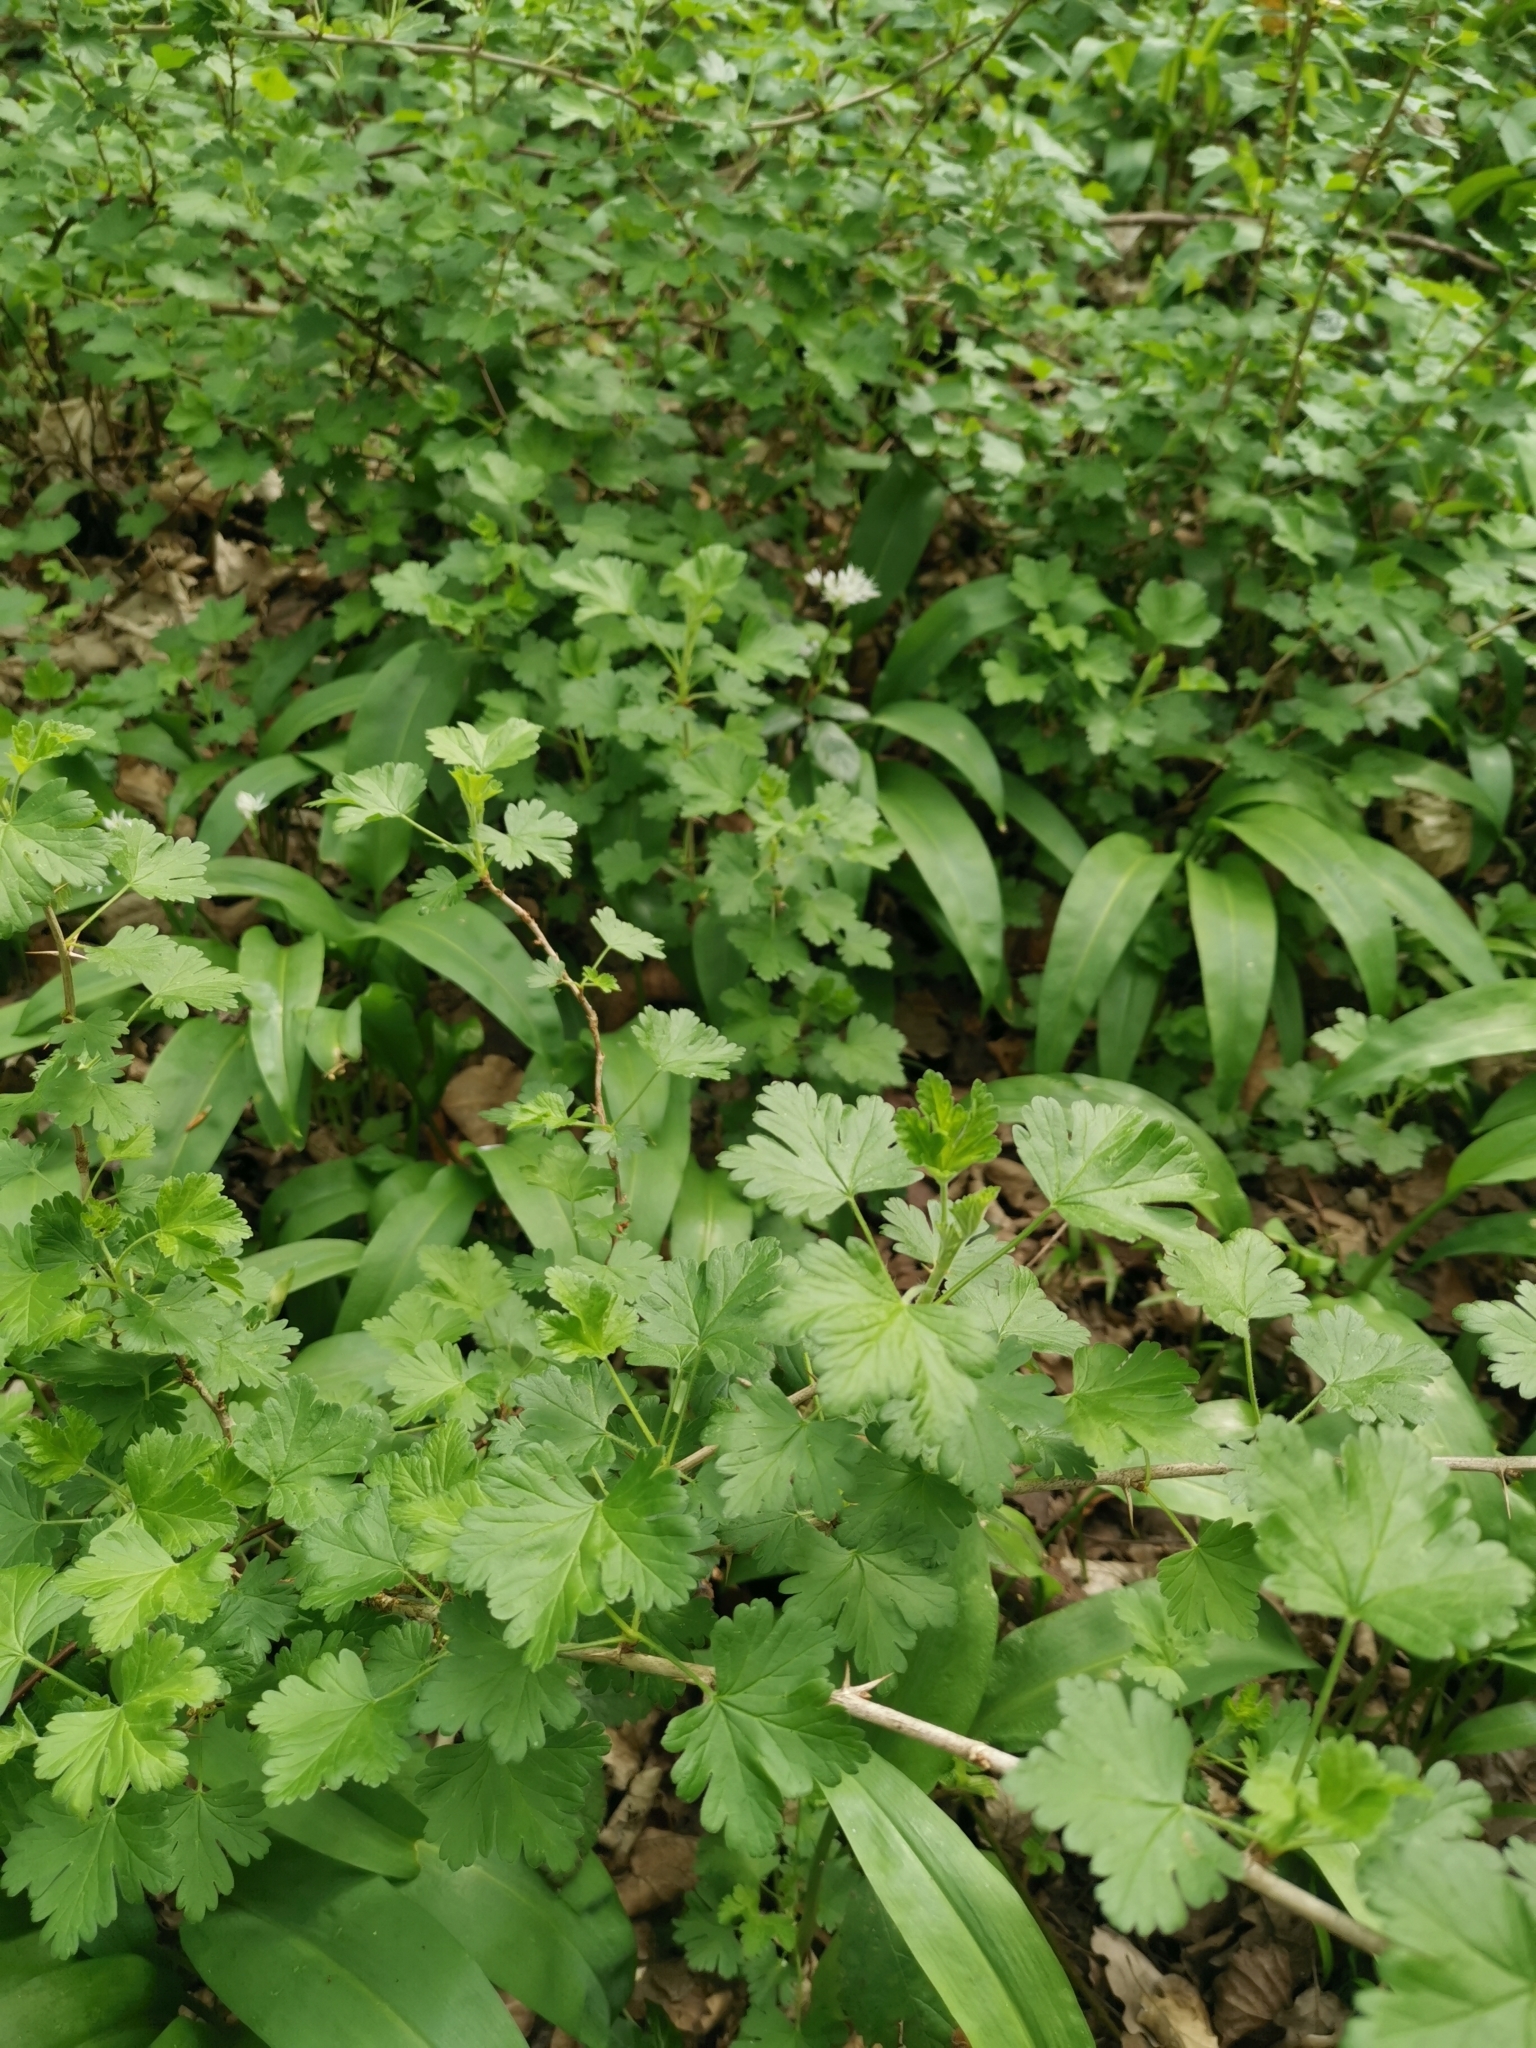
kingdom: Plantae
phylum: Tracheophyta
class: Magnoliopsida
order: Saxifragales
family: Grossulariaceae
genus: Ribes
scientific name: Ribes uva-crispa
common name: Gooseberry
